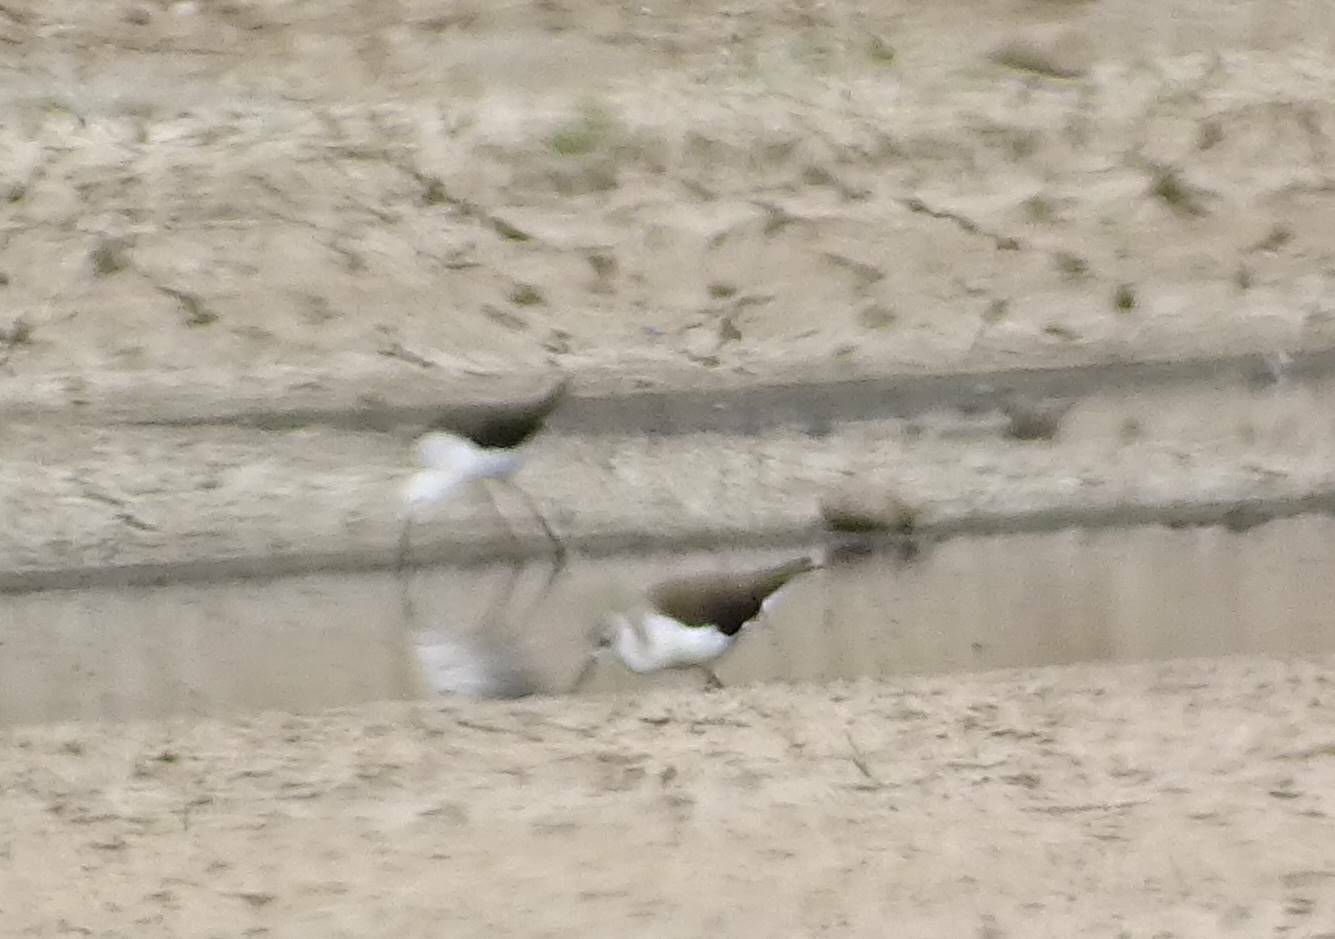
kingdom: Animalia
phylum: Chordata
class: Aves
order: Charadriiformes
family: Recurvirostridae
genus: Himantopus
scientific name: Himantopus himantopus
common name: Black-winged stilt
